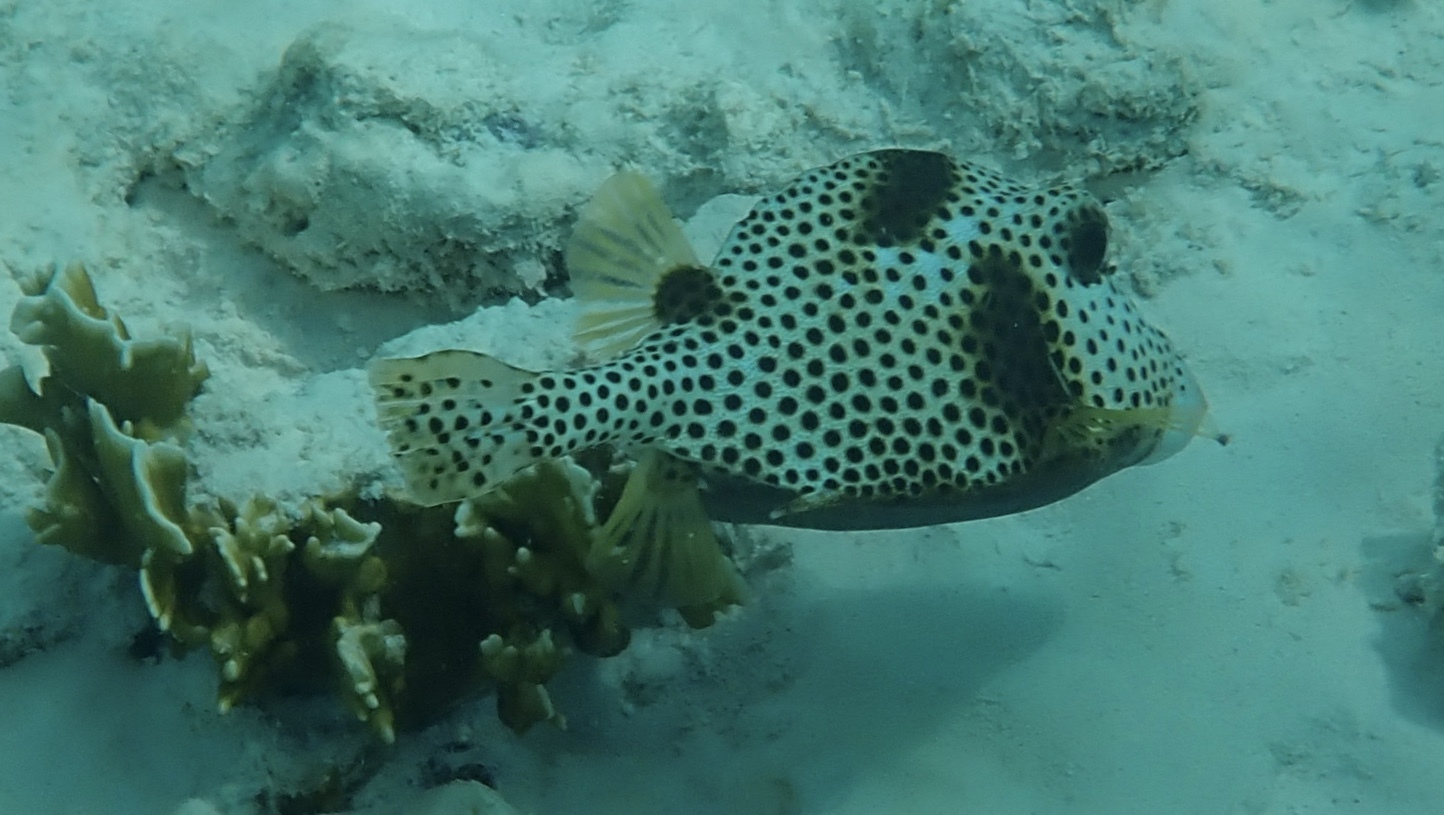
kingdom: Animalia
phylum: Chordata
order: Tetraodontiformes
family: Ostraciidae
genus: Lactophrys
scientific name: Lactophrys bicaudalis
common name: Spotted trunkfish
